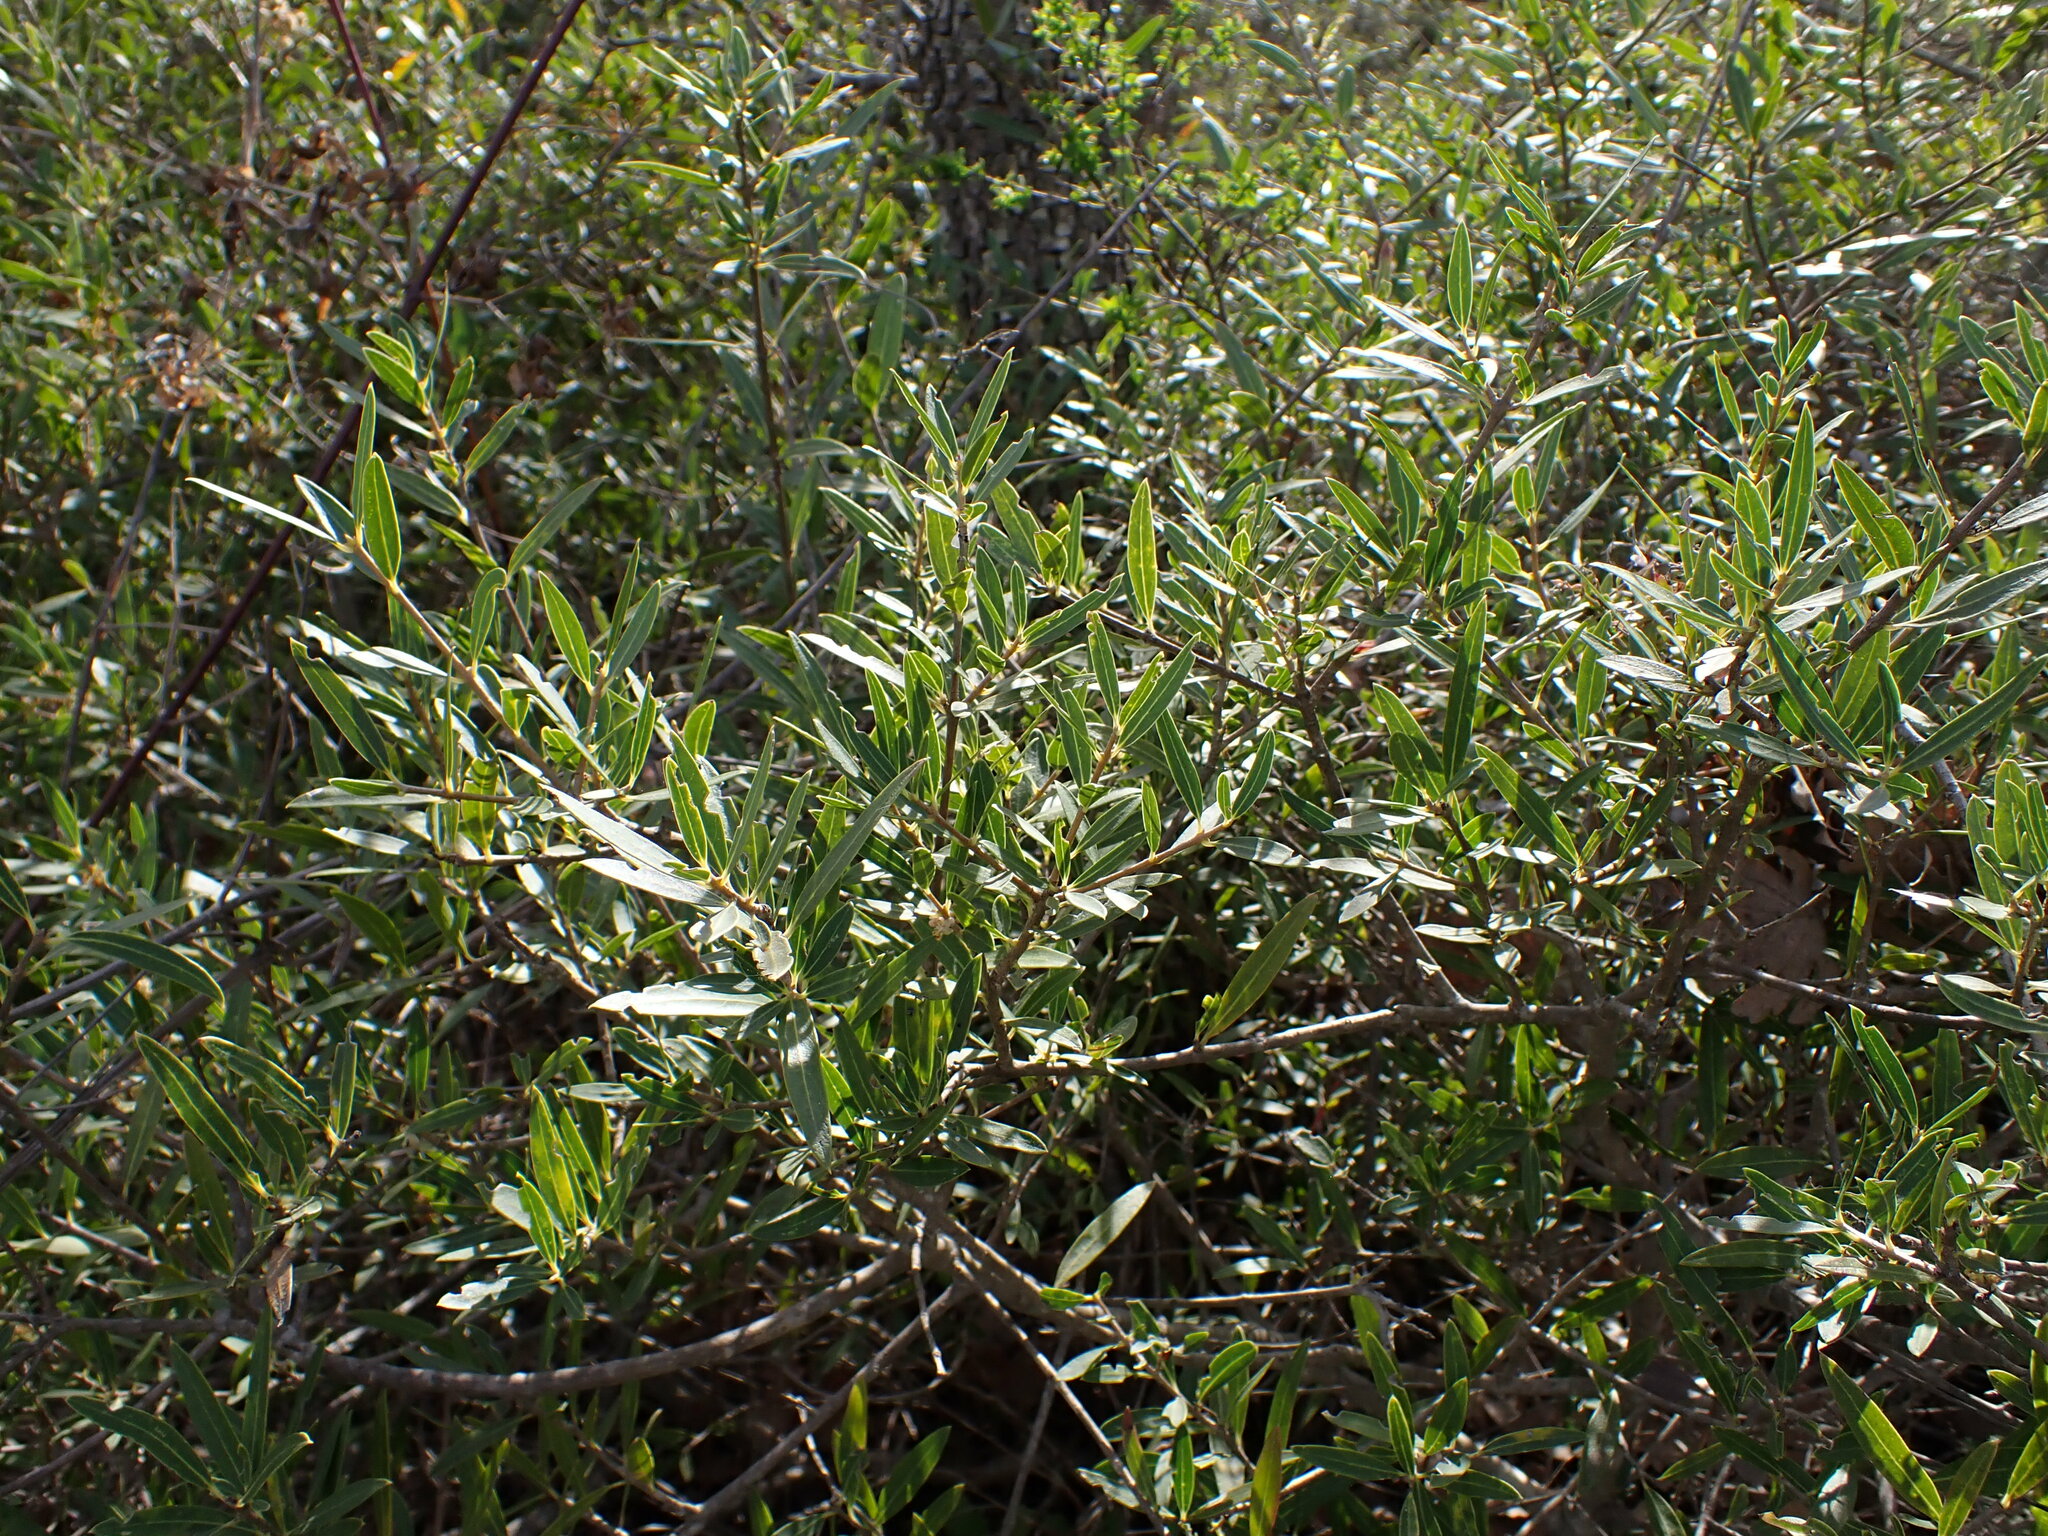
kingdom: Plantae
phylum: Tracheophyta
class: Magnoliopsida
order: Lamiales
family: Oleaceae
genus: Phillyrea
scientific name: Phillyrea angustifolia
